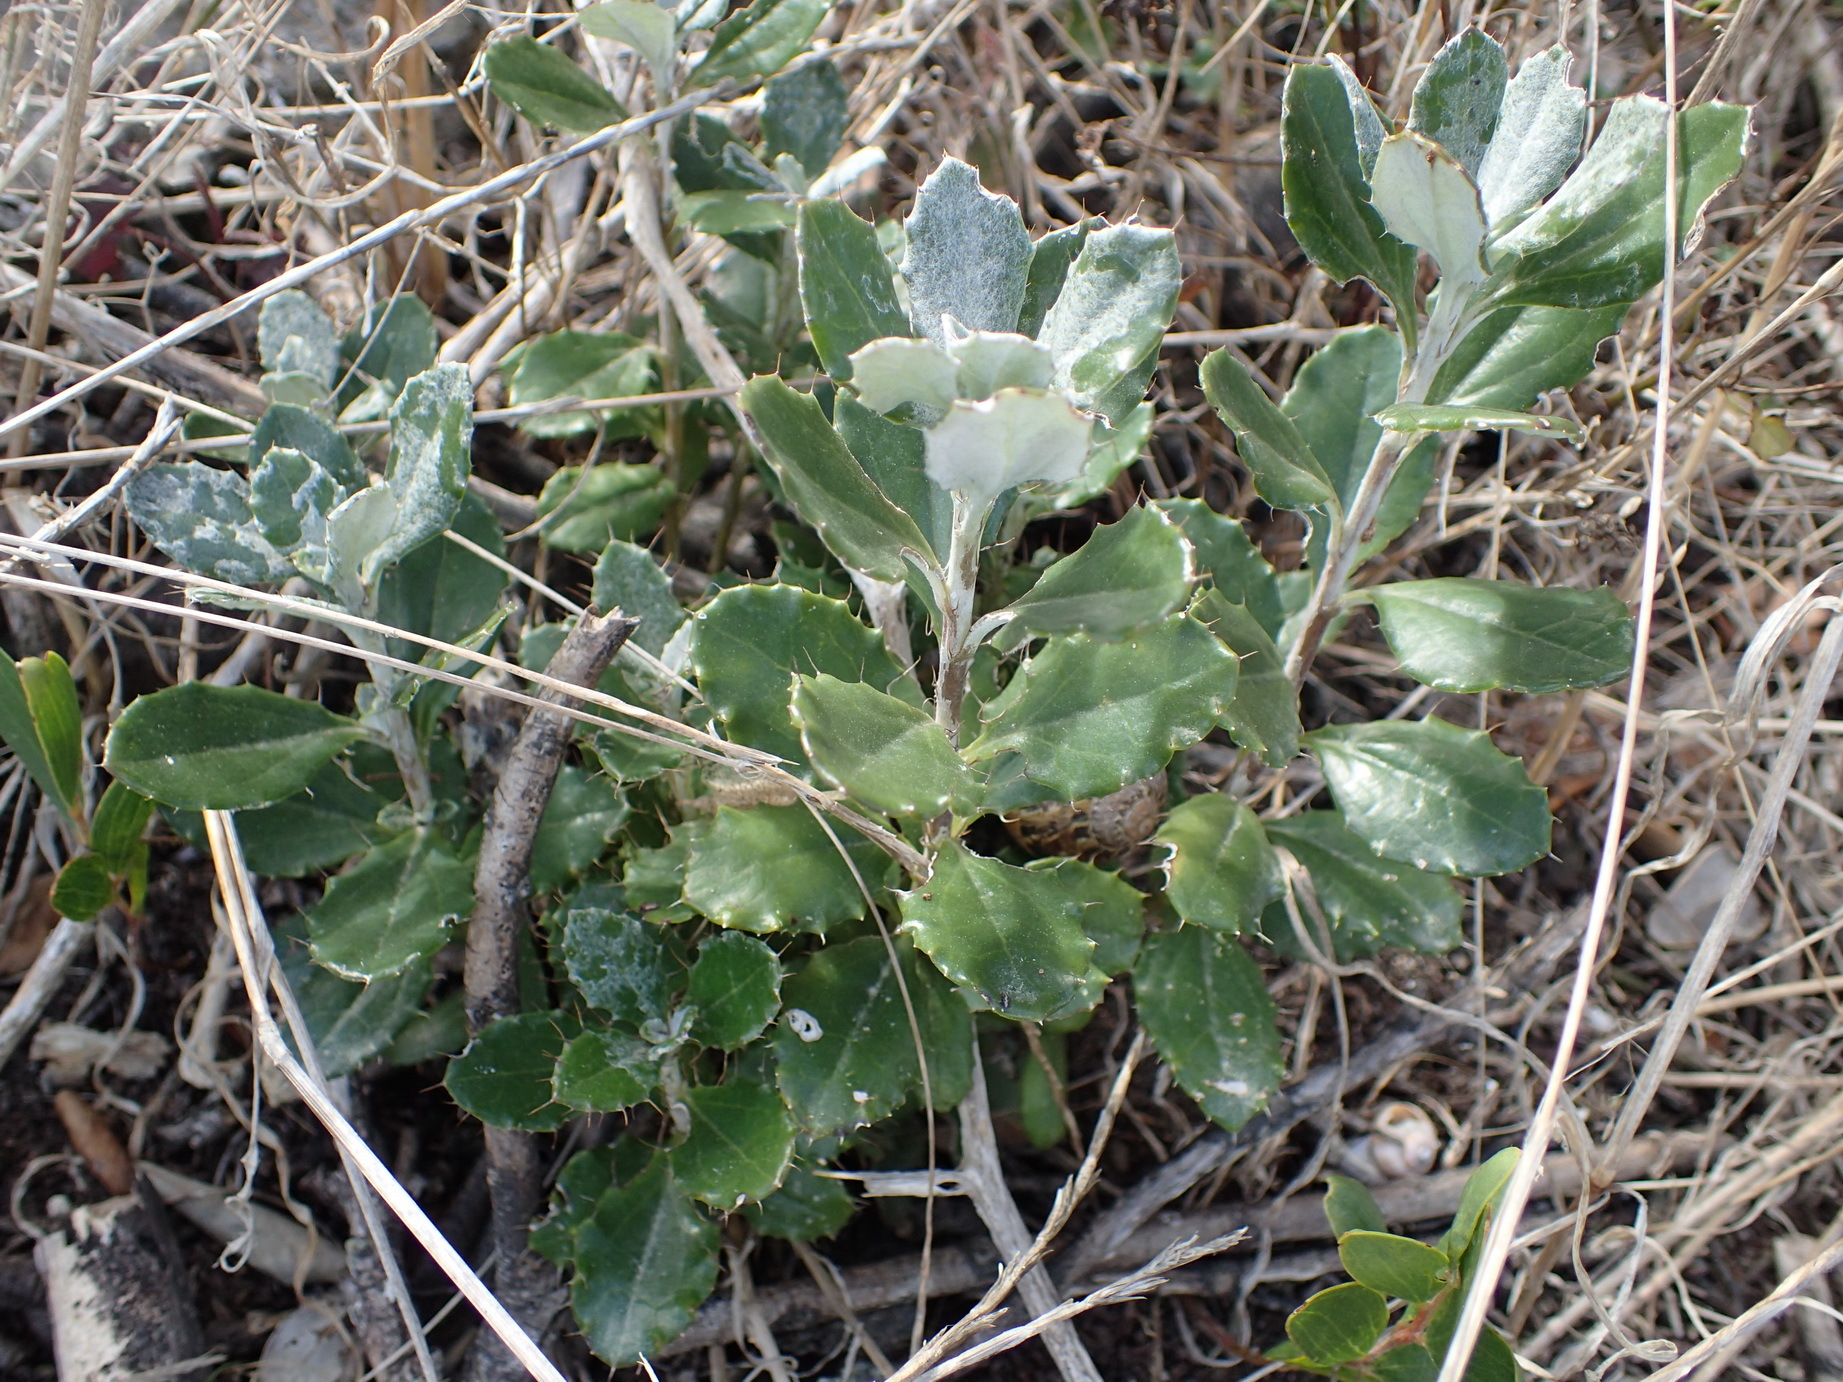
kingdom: Plantae
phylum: Tracheophyta
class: Magnoliopsida
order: Asterales
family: Asteraceae
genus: Berkheya
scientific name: Berkheya coriacea
